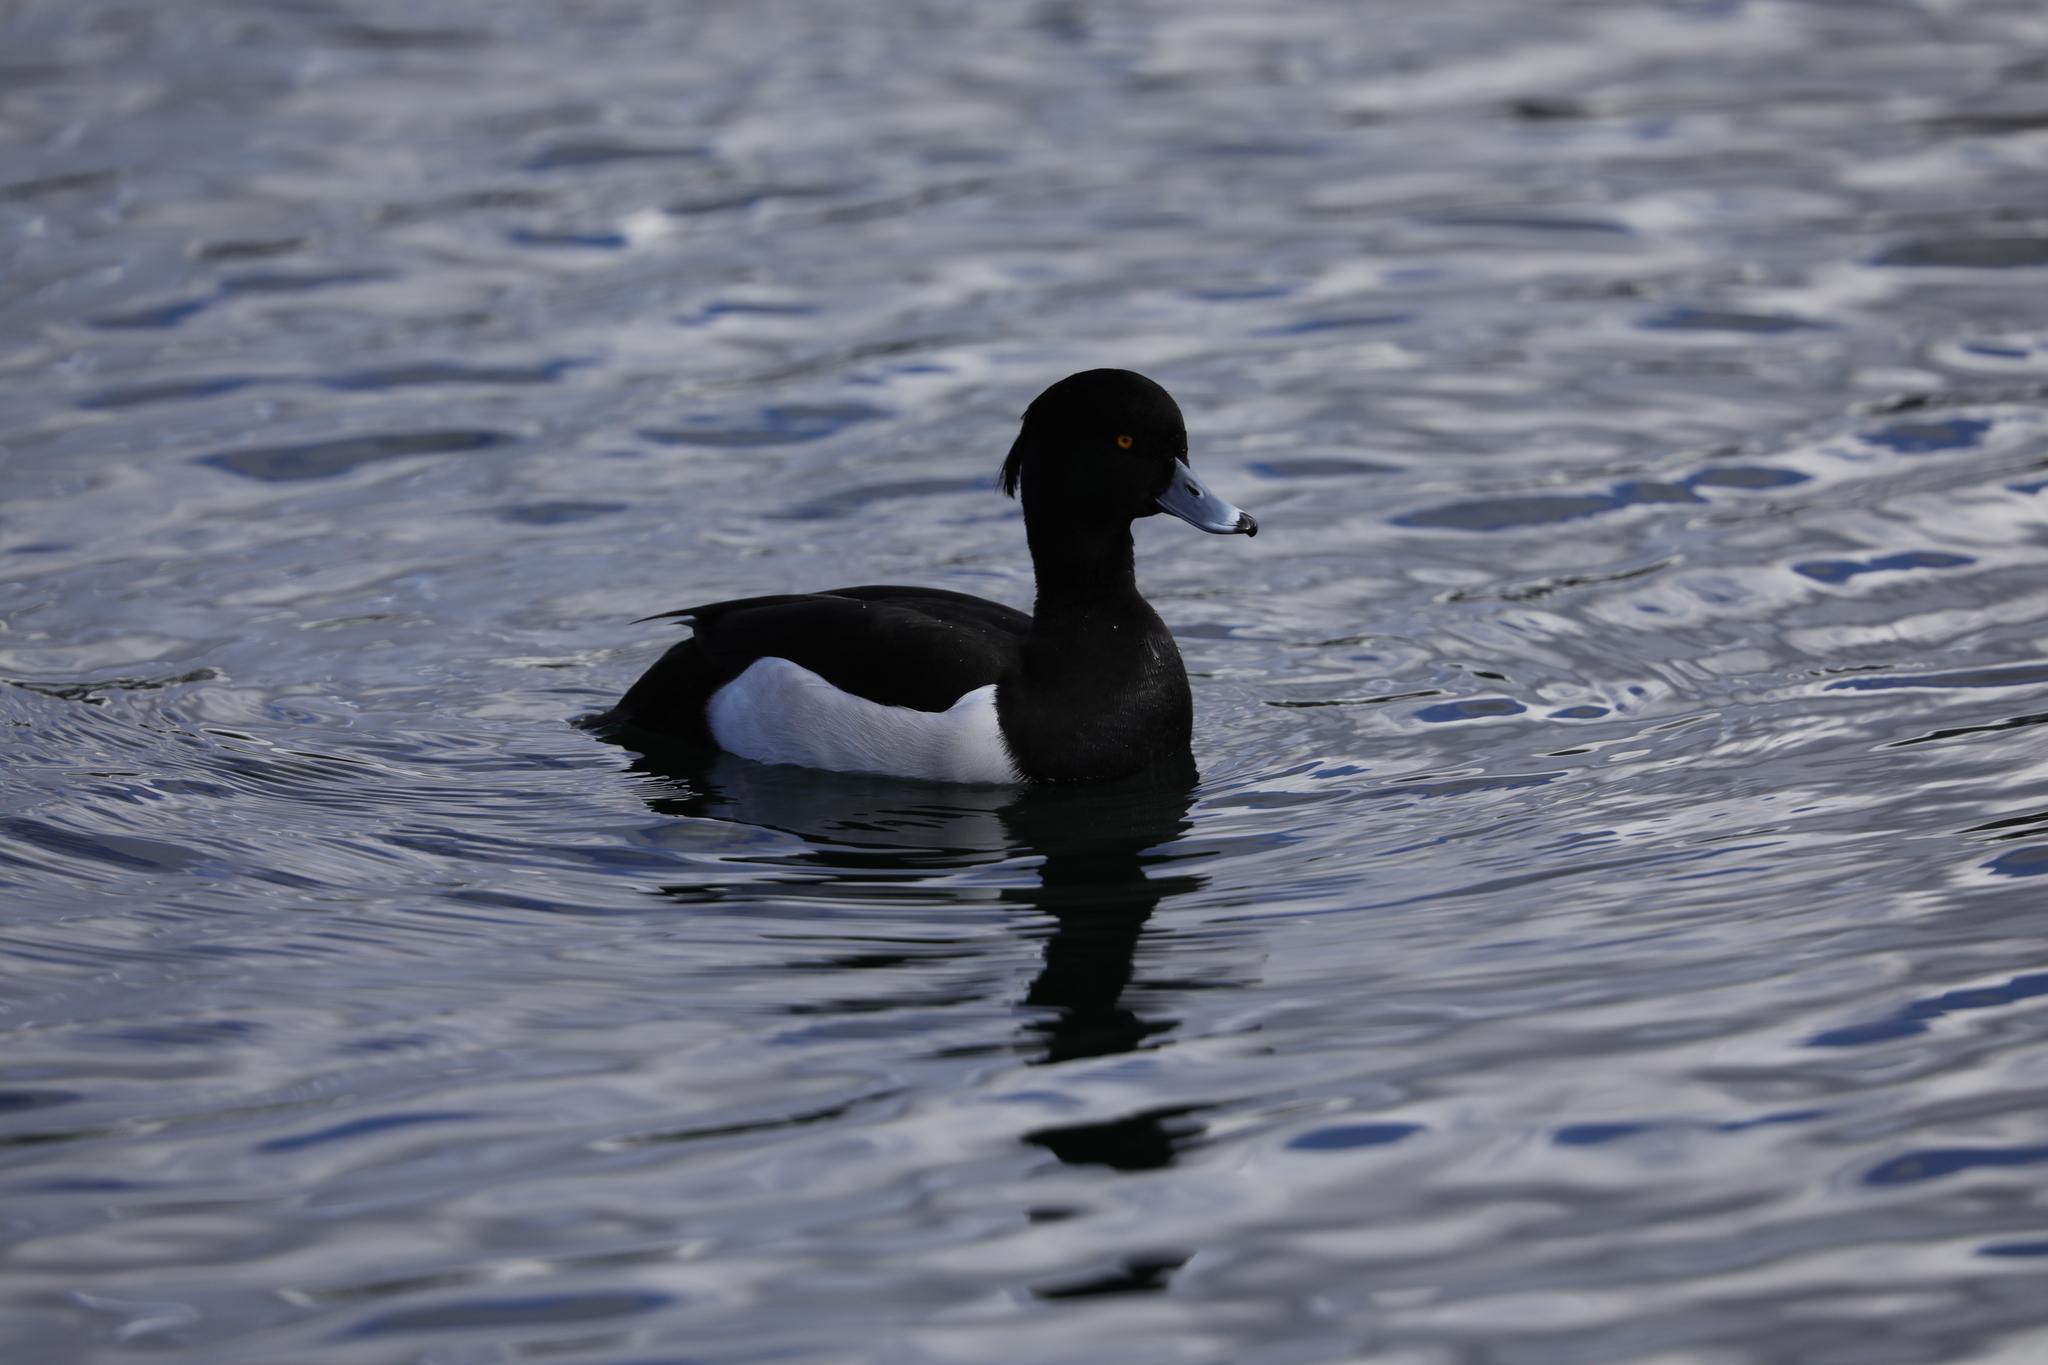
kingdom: Animalia
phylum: Chordata
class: Aves
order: Anseriformes
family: Anatidae
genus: Aythya
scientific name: Aythya fuligula
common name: Tufted duck
